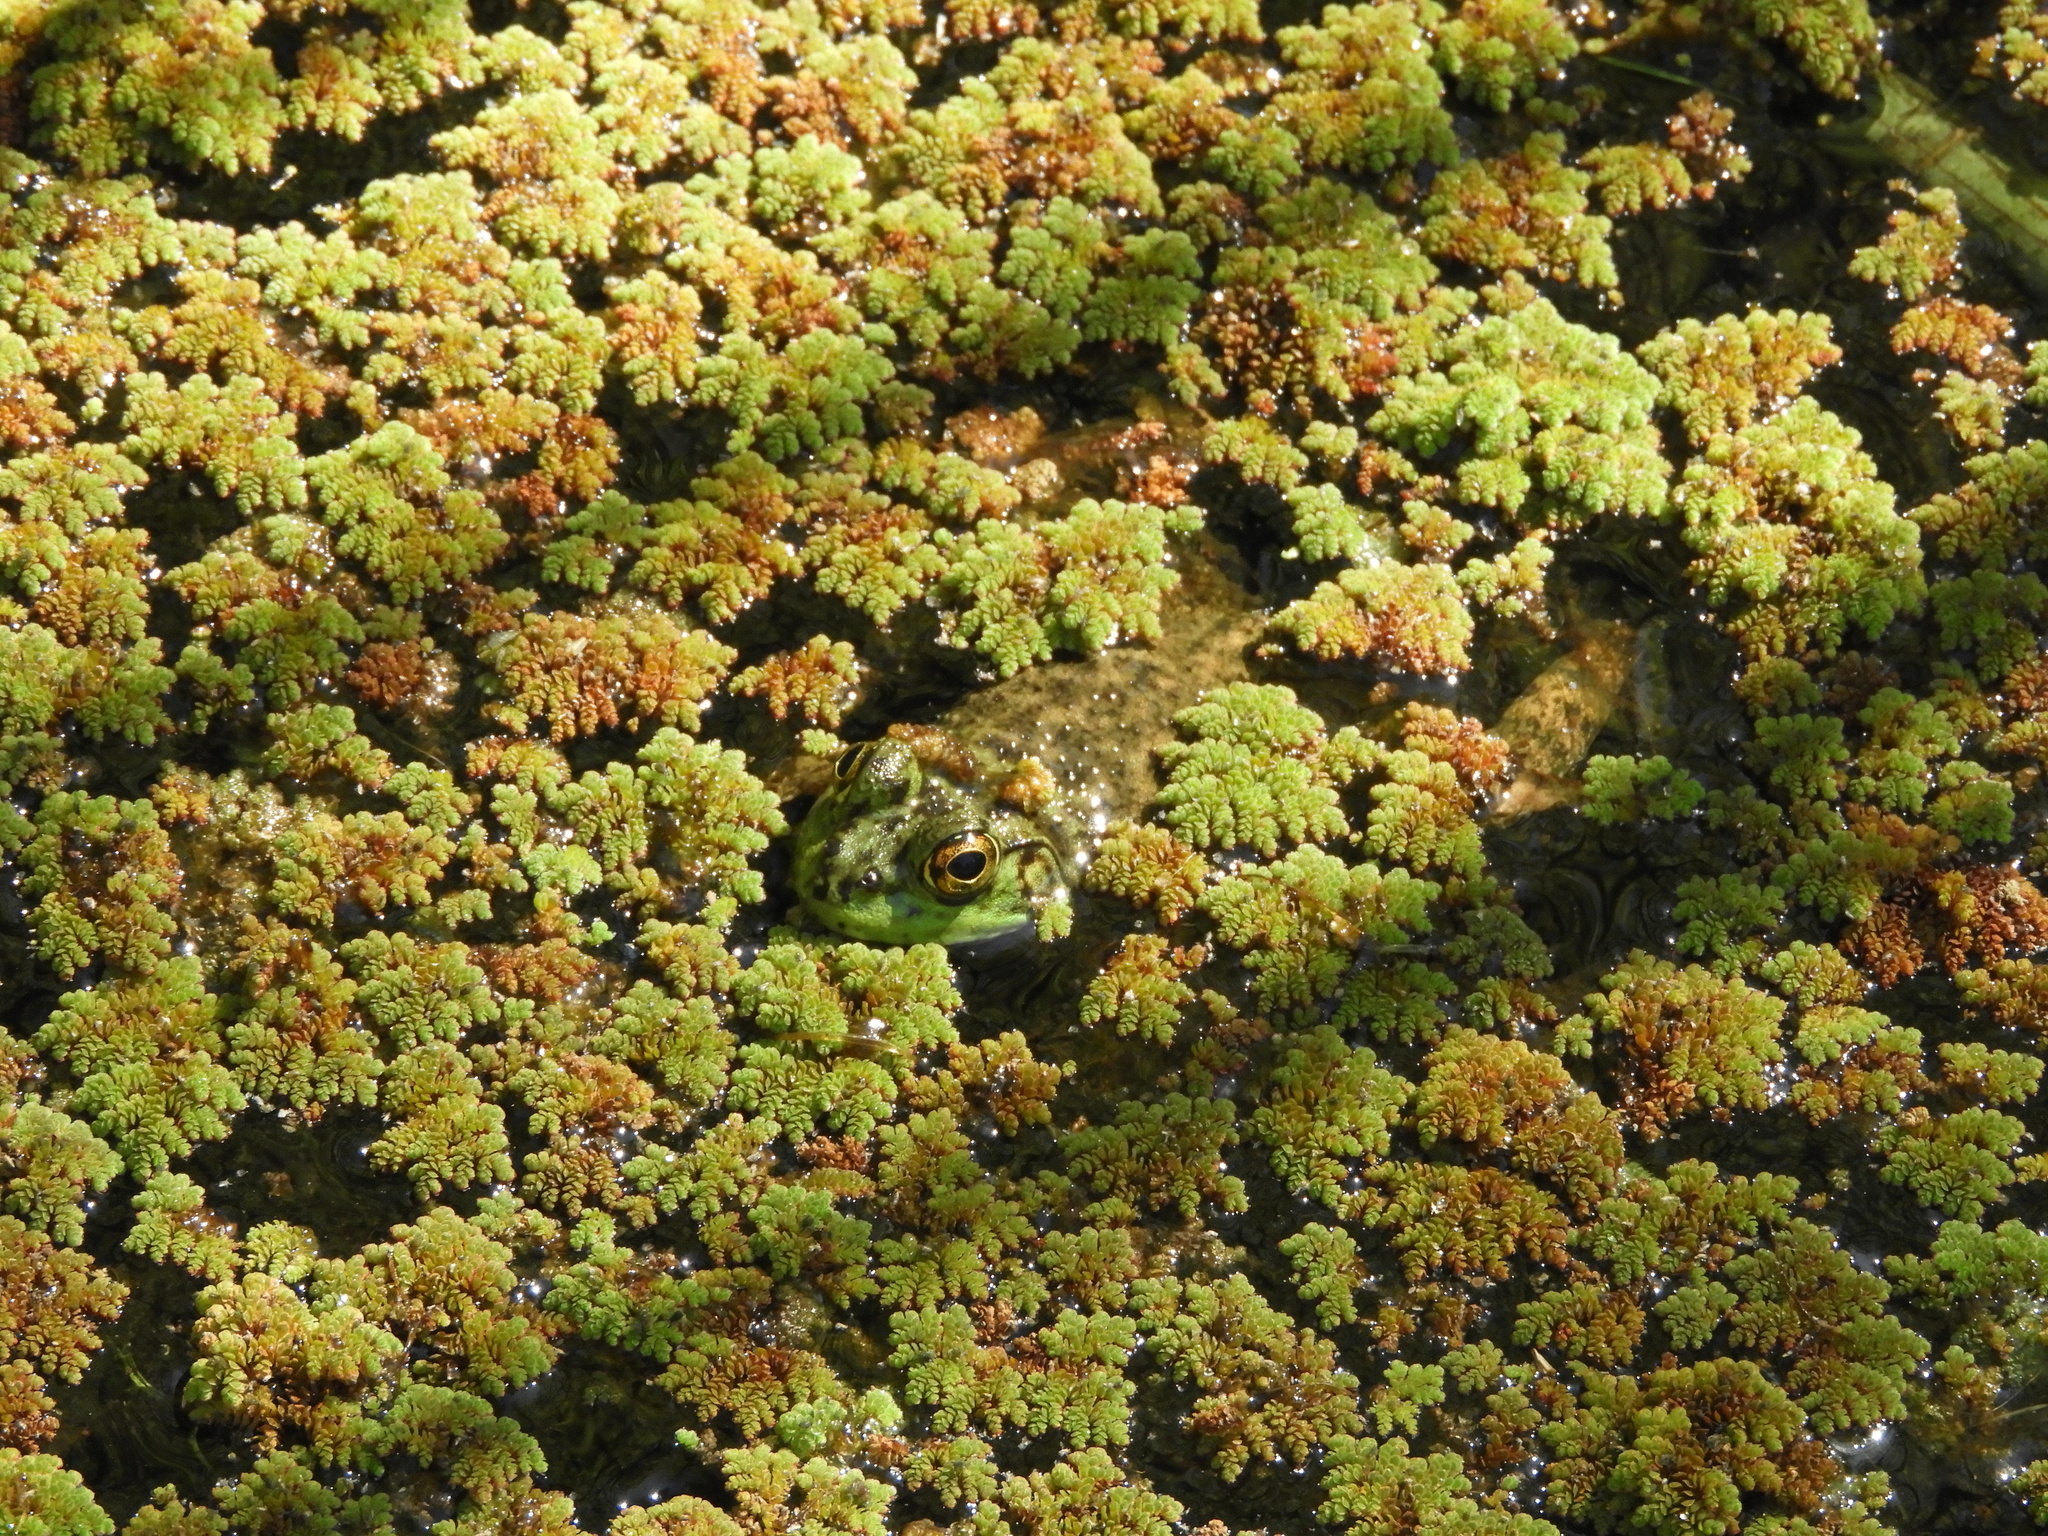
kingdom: Animalia
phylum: Chordata
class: Amphibia
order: Anura
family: Ranidae
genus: Lithobates
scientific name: Lithobates catesbeianus
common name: American bullfrog
